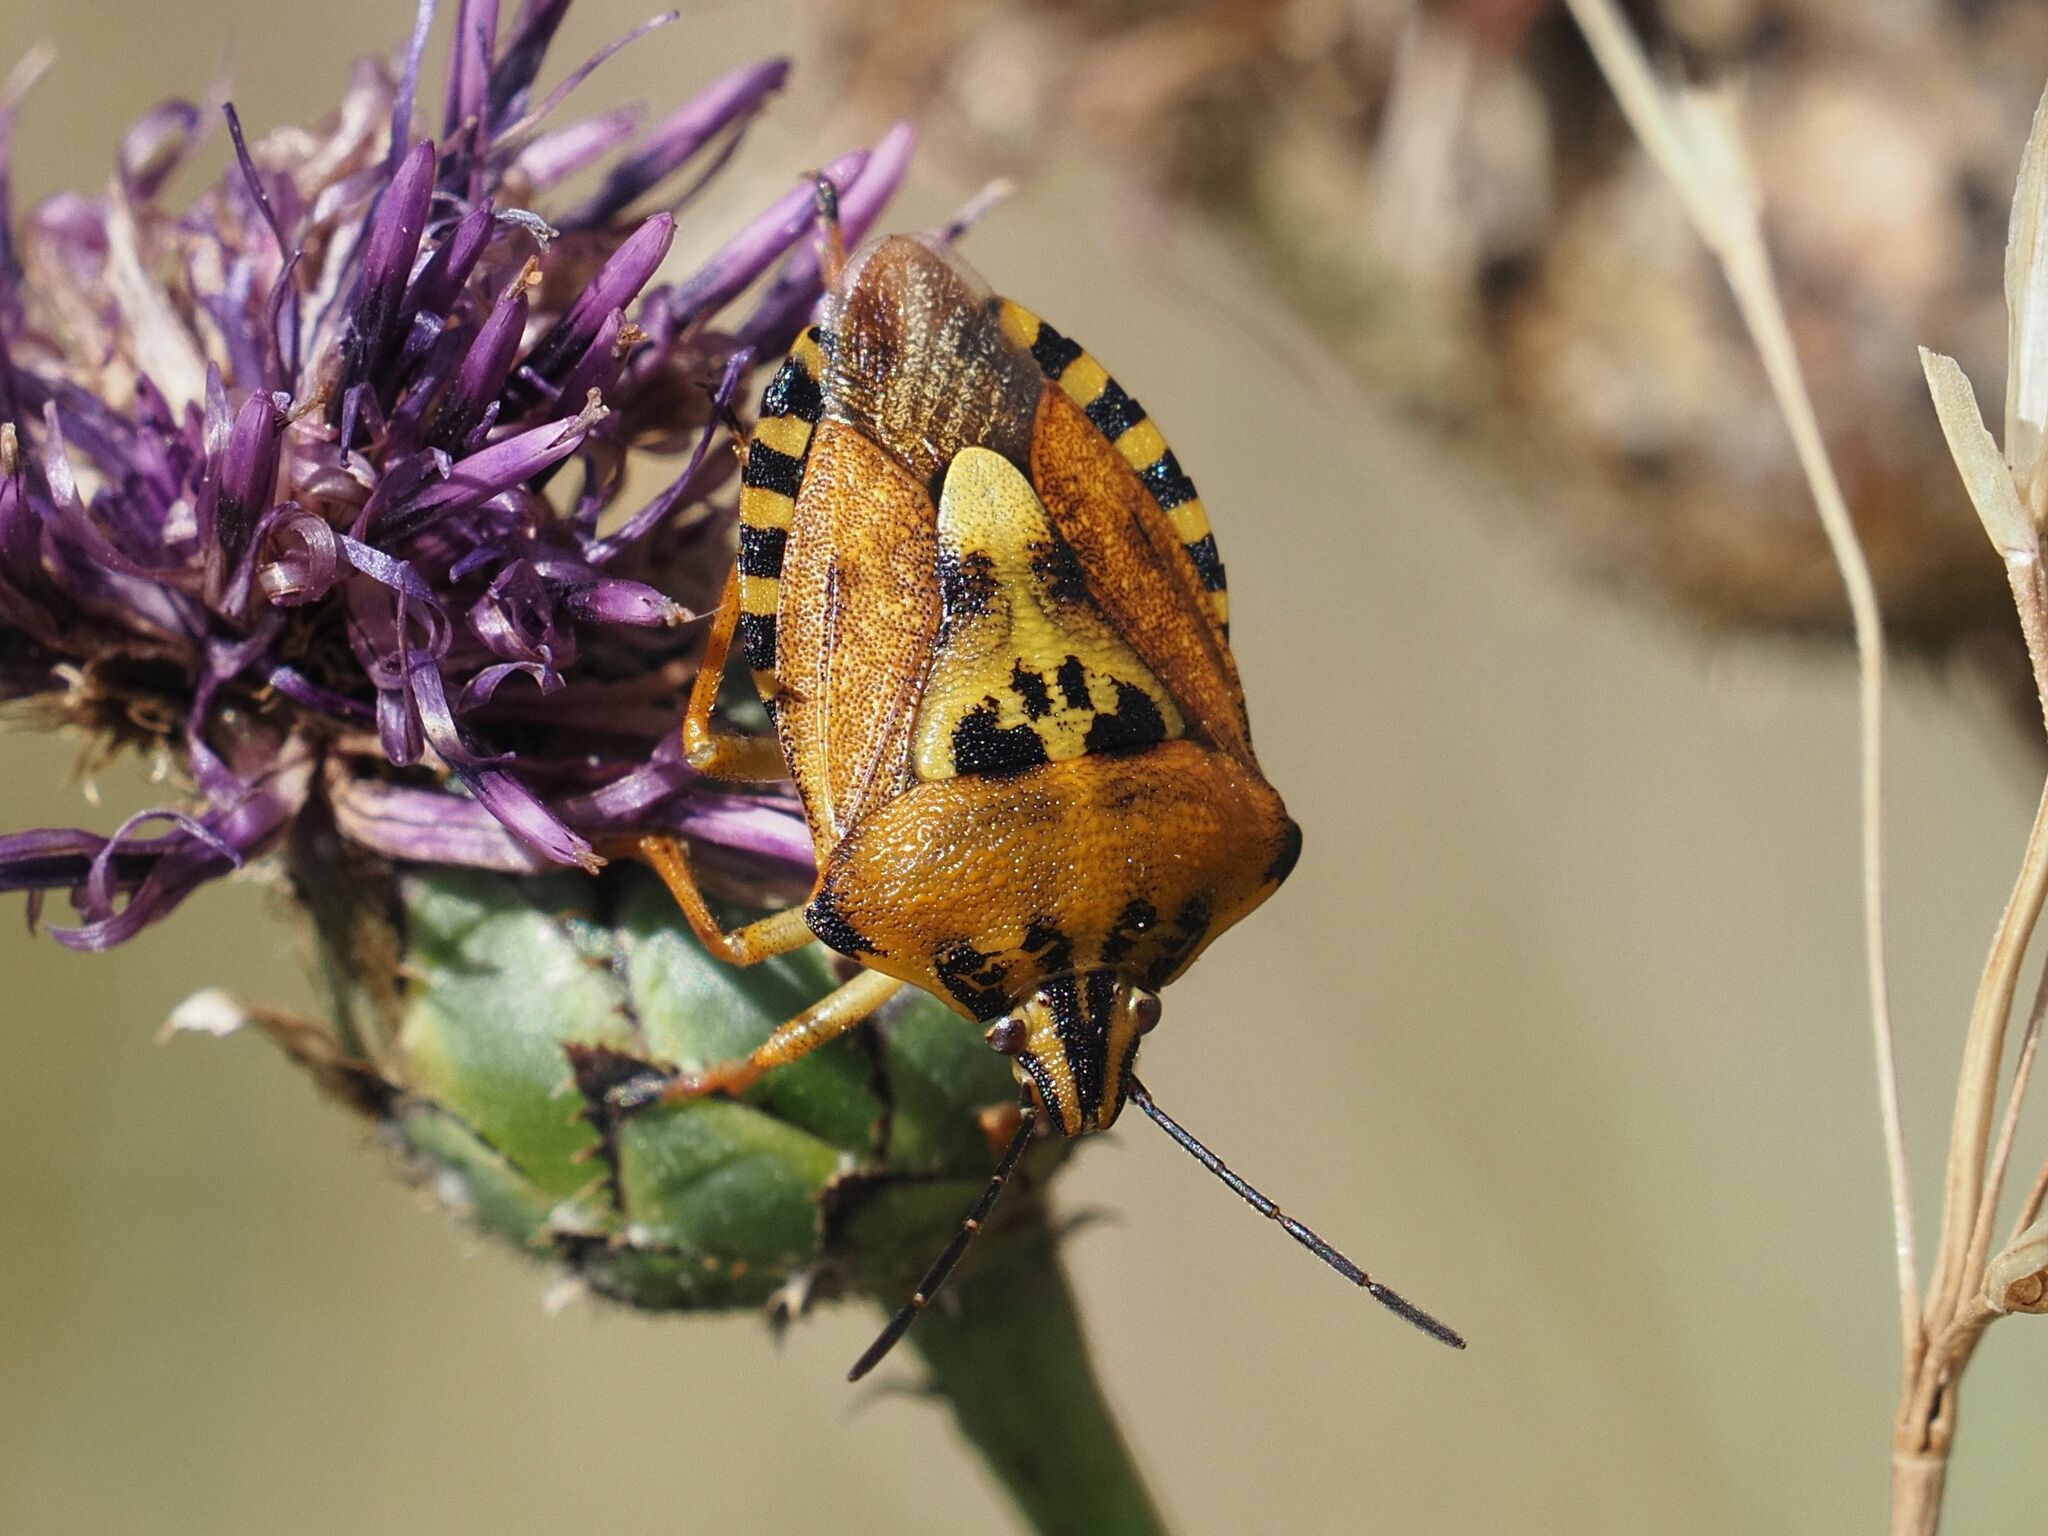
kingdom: Animalia
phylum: Arthropoda
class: Insecta
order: Hemiptera
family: Pentatomidae
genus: Carpocoris
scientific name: Carpocoris purpureipennis
